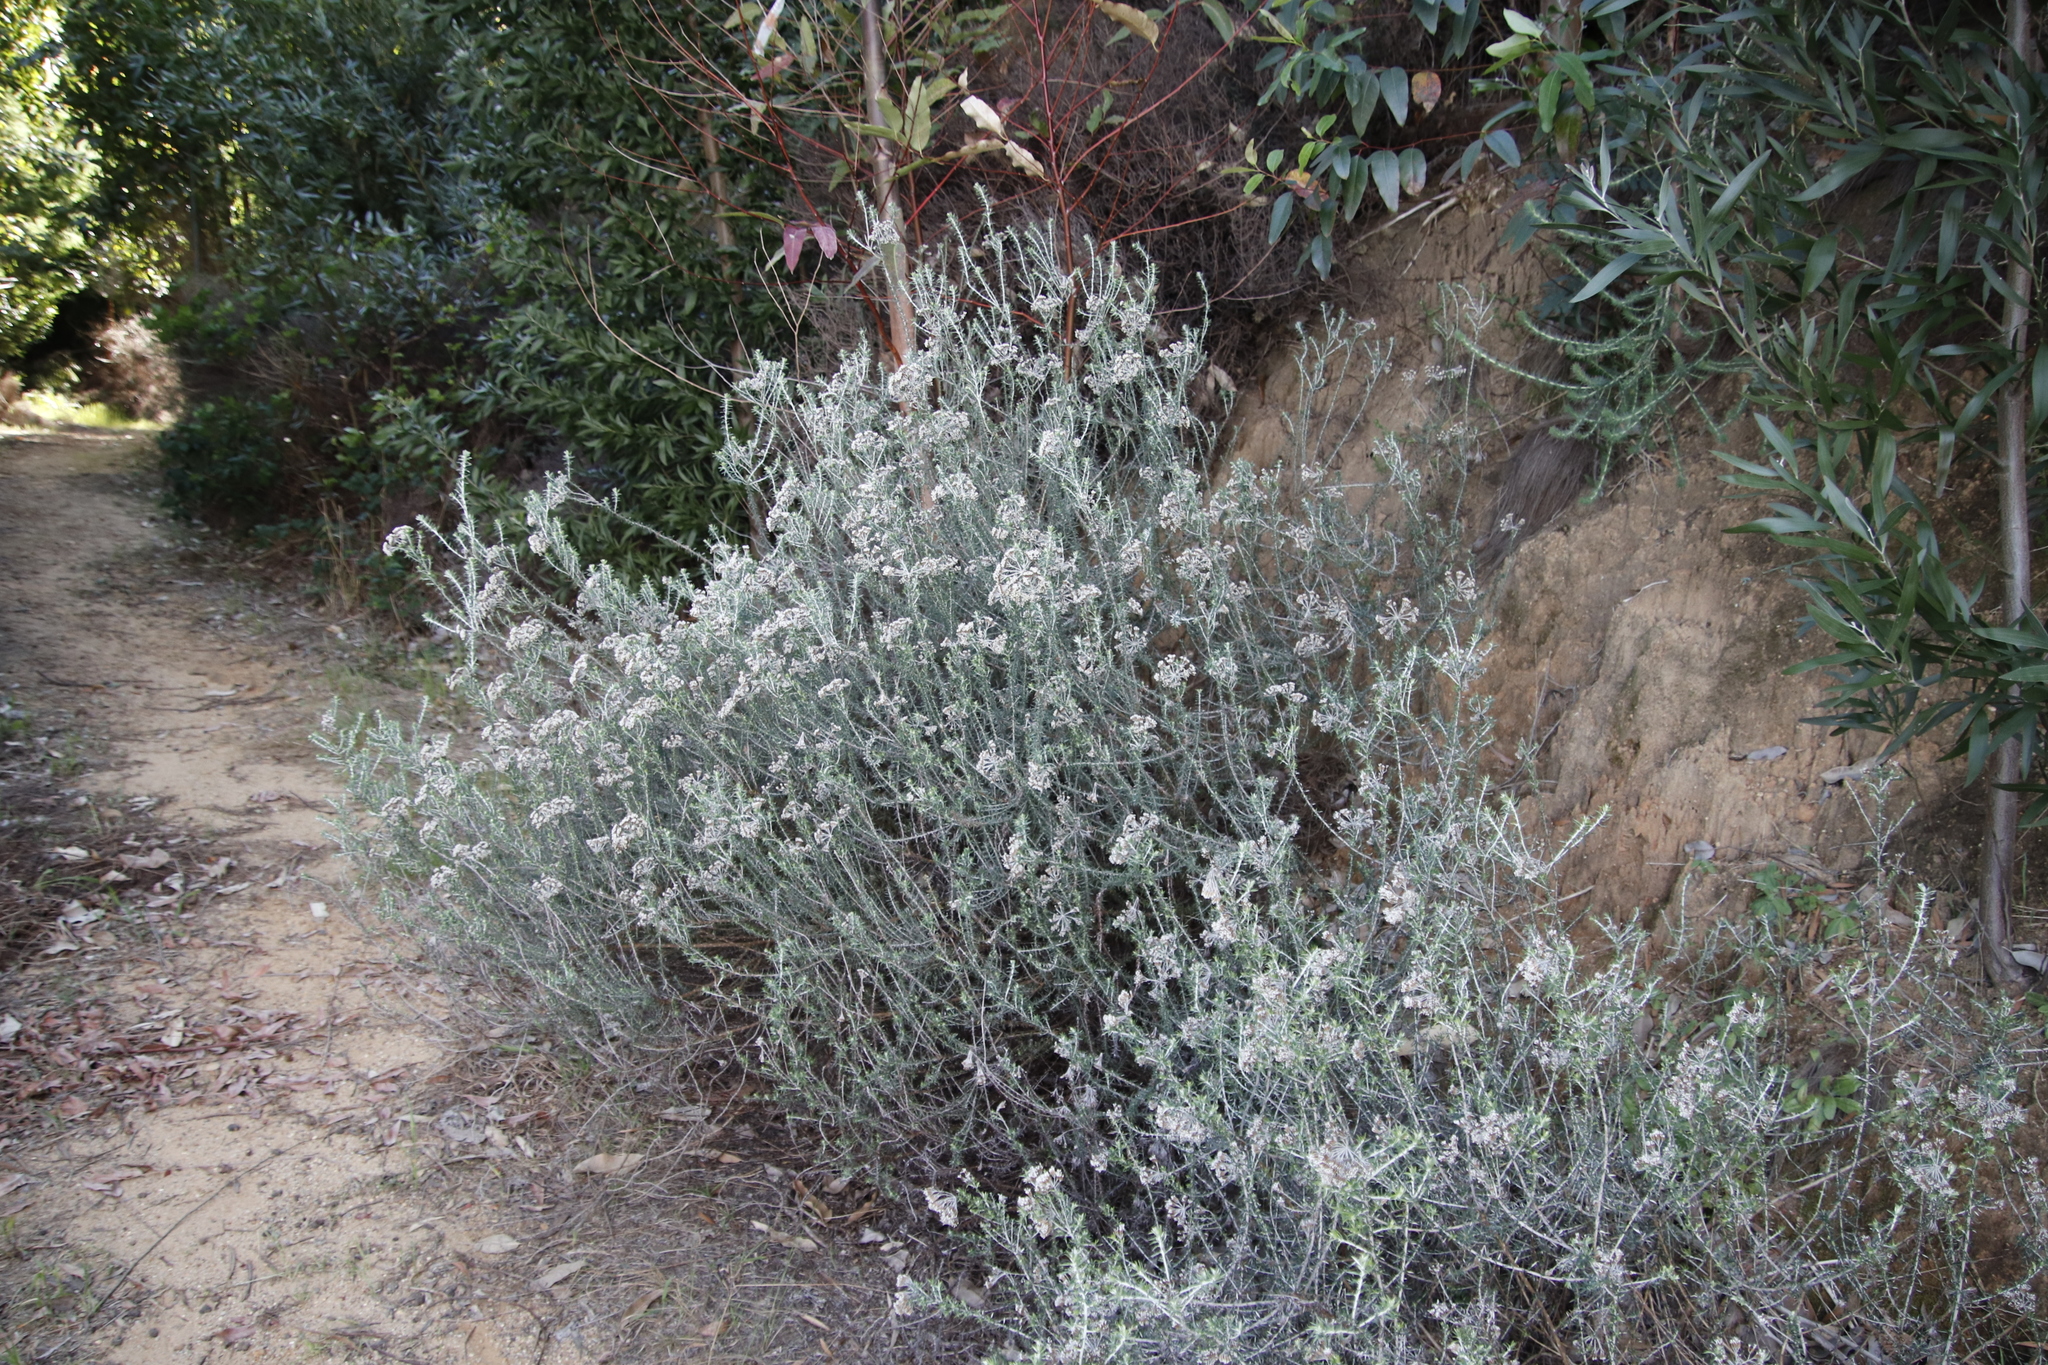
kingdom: Plantae
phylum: Tracheophyta
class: Magnoliopsida
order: Asterales
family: Asteraceae
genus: Metalasia
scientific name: Metalasia densa
